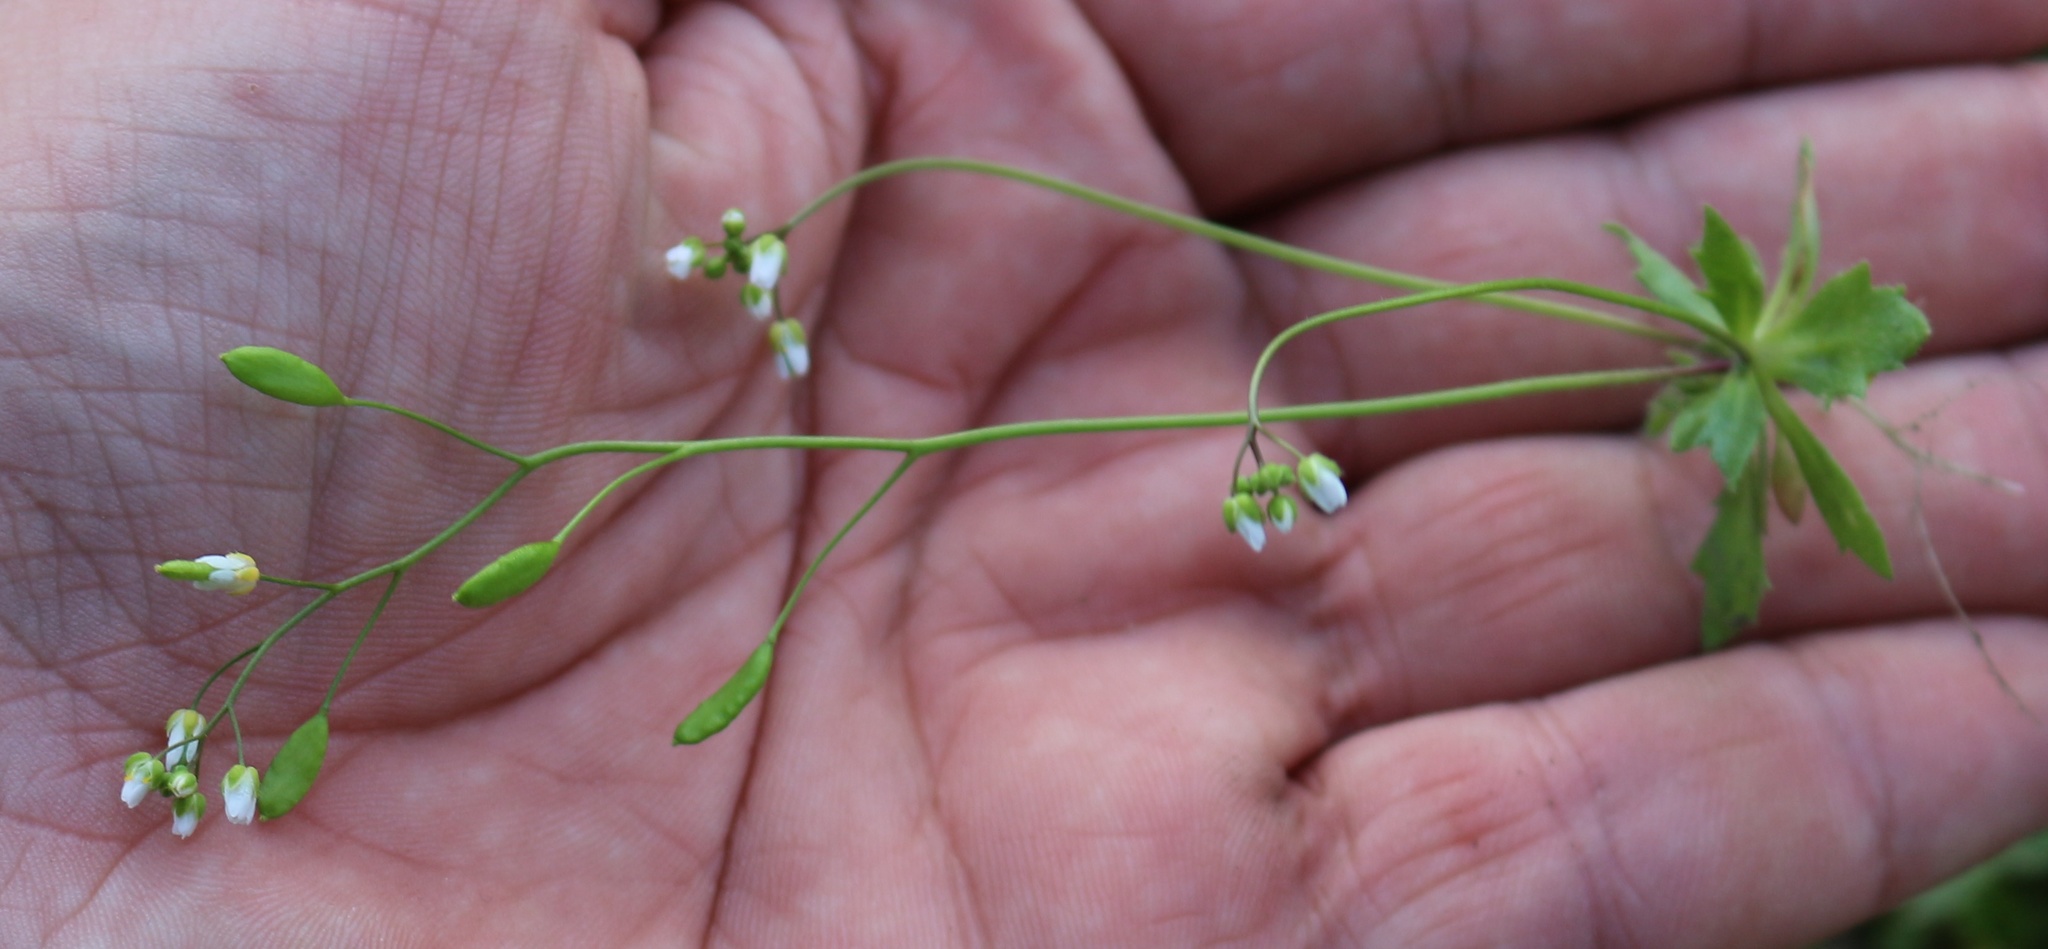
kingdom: Plantae
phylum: Tracheophyta
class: Magnoliopsida
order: Brassicales
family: Brassicaceae
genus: Draba
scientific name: Draba verna
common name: Spring draba
